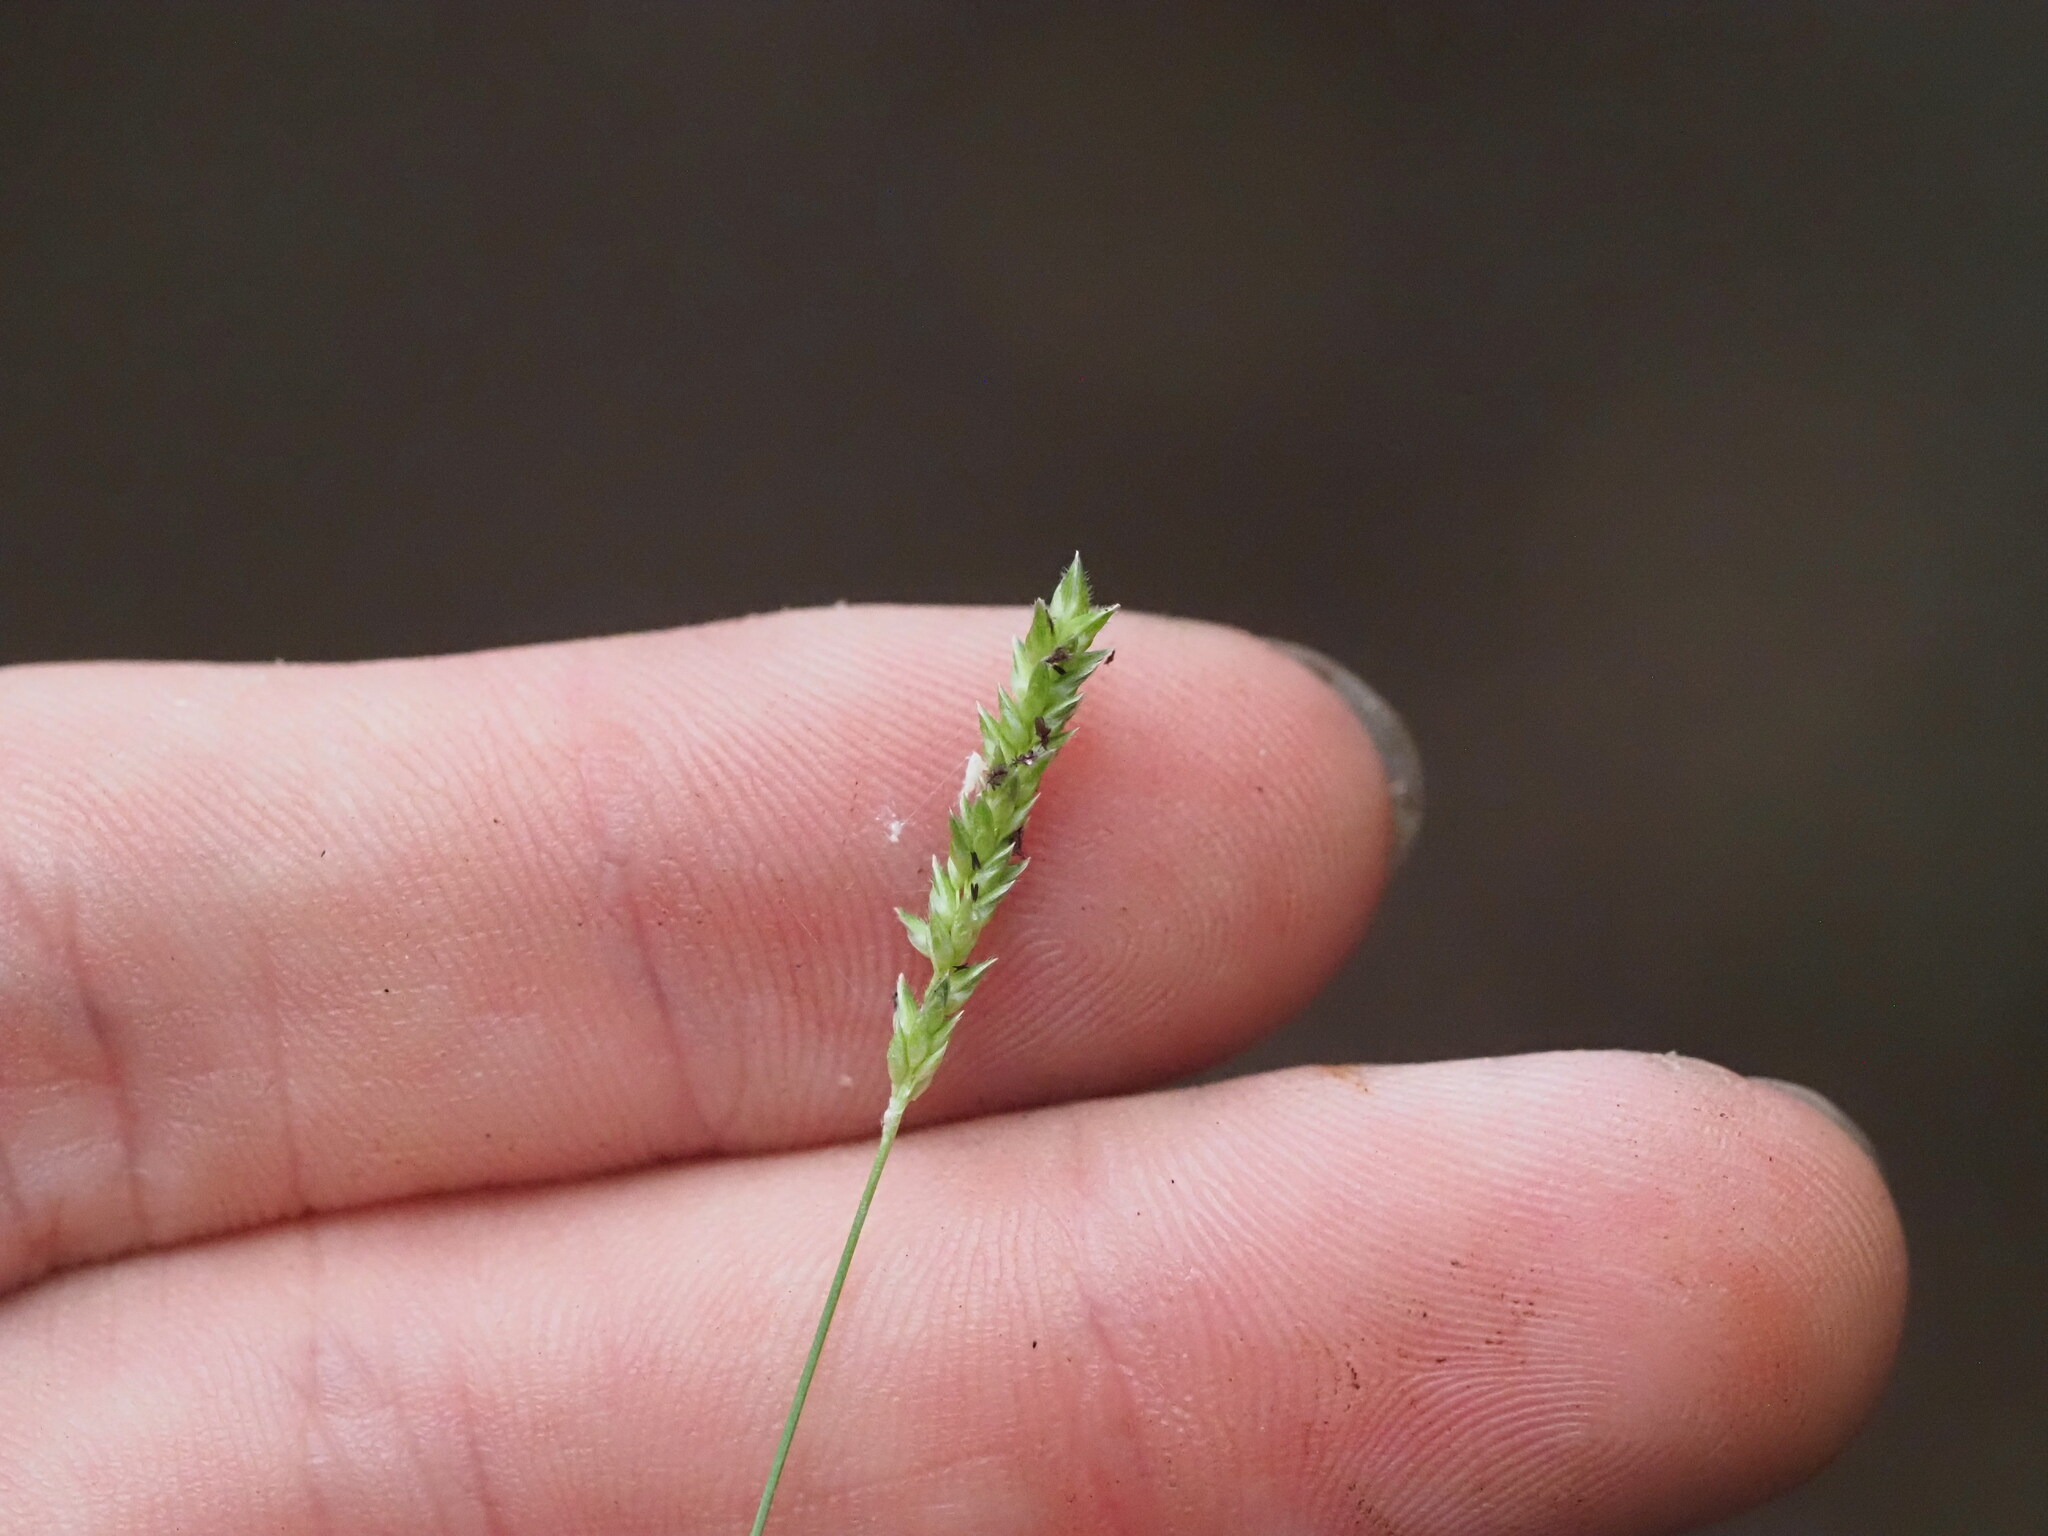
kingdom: Plantae
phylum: Tracheophyta
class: Liliopsida
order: Poales
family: Poaceae
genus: Sacciolepis
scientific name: Sacciolepis indica
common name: Glenwoodgrass
